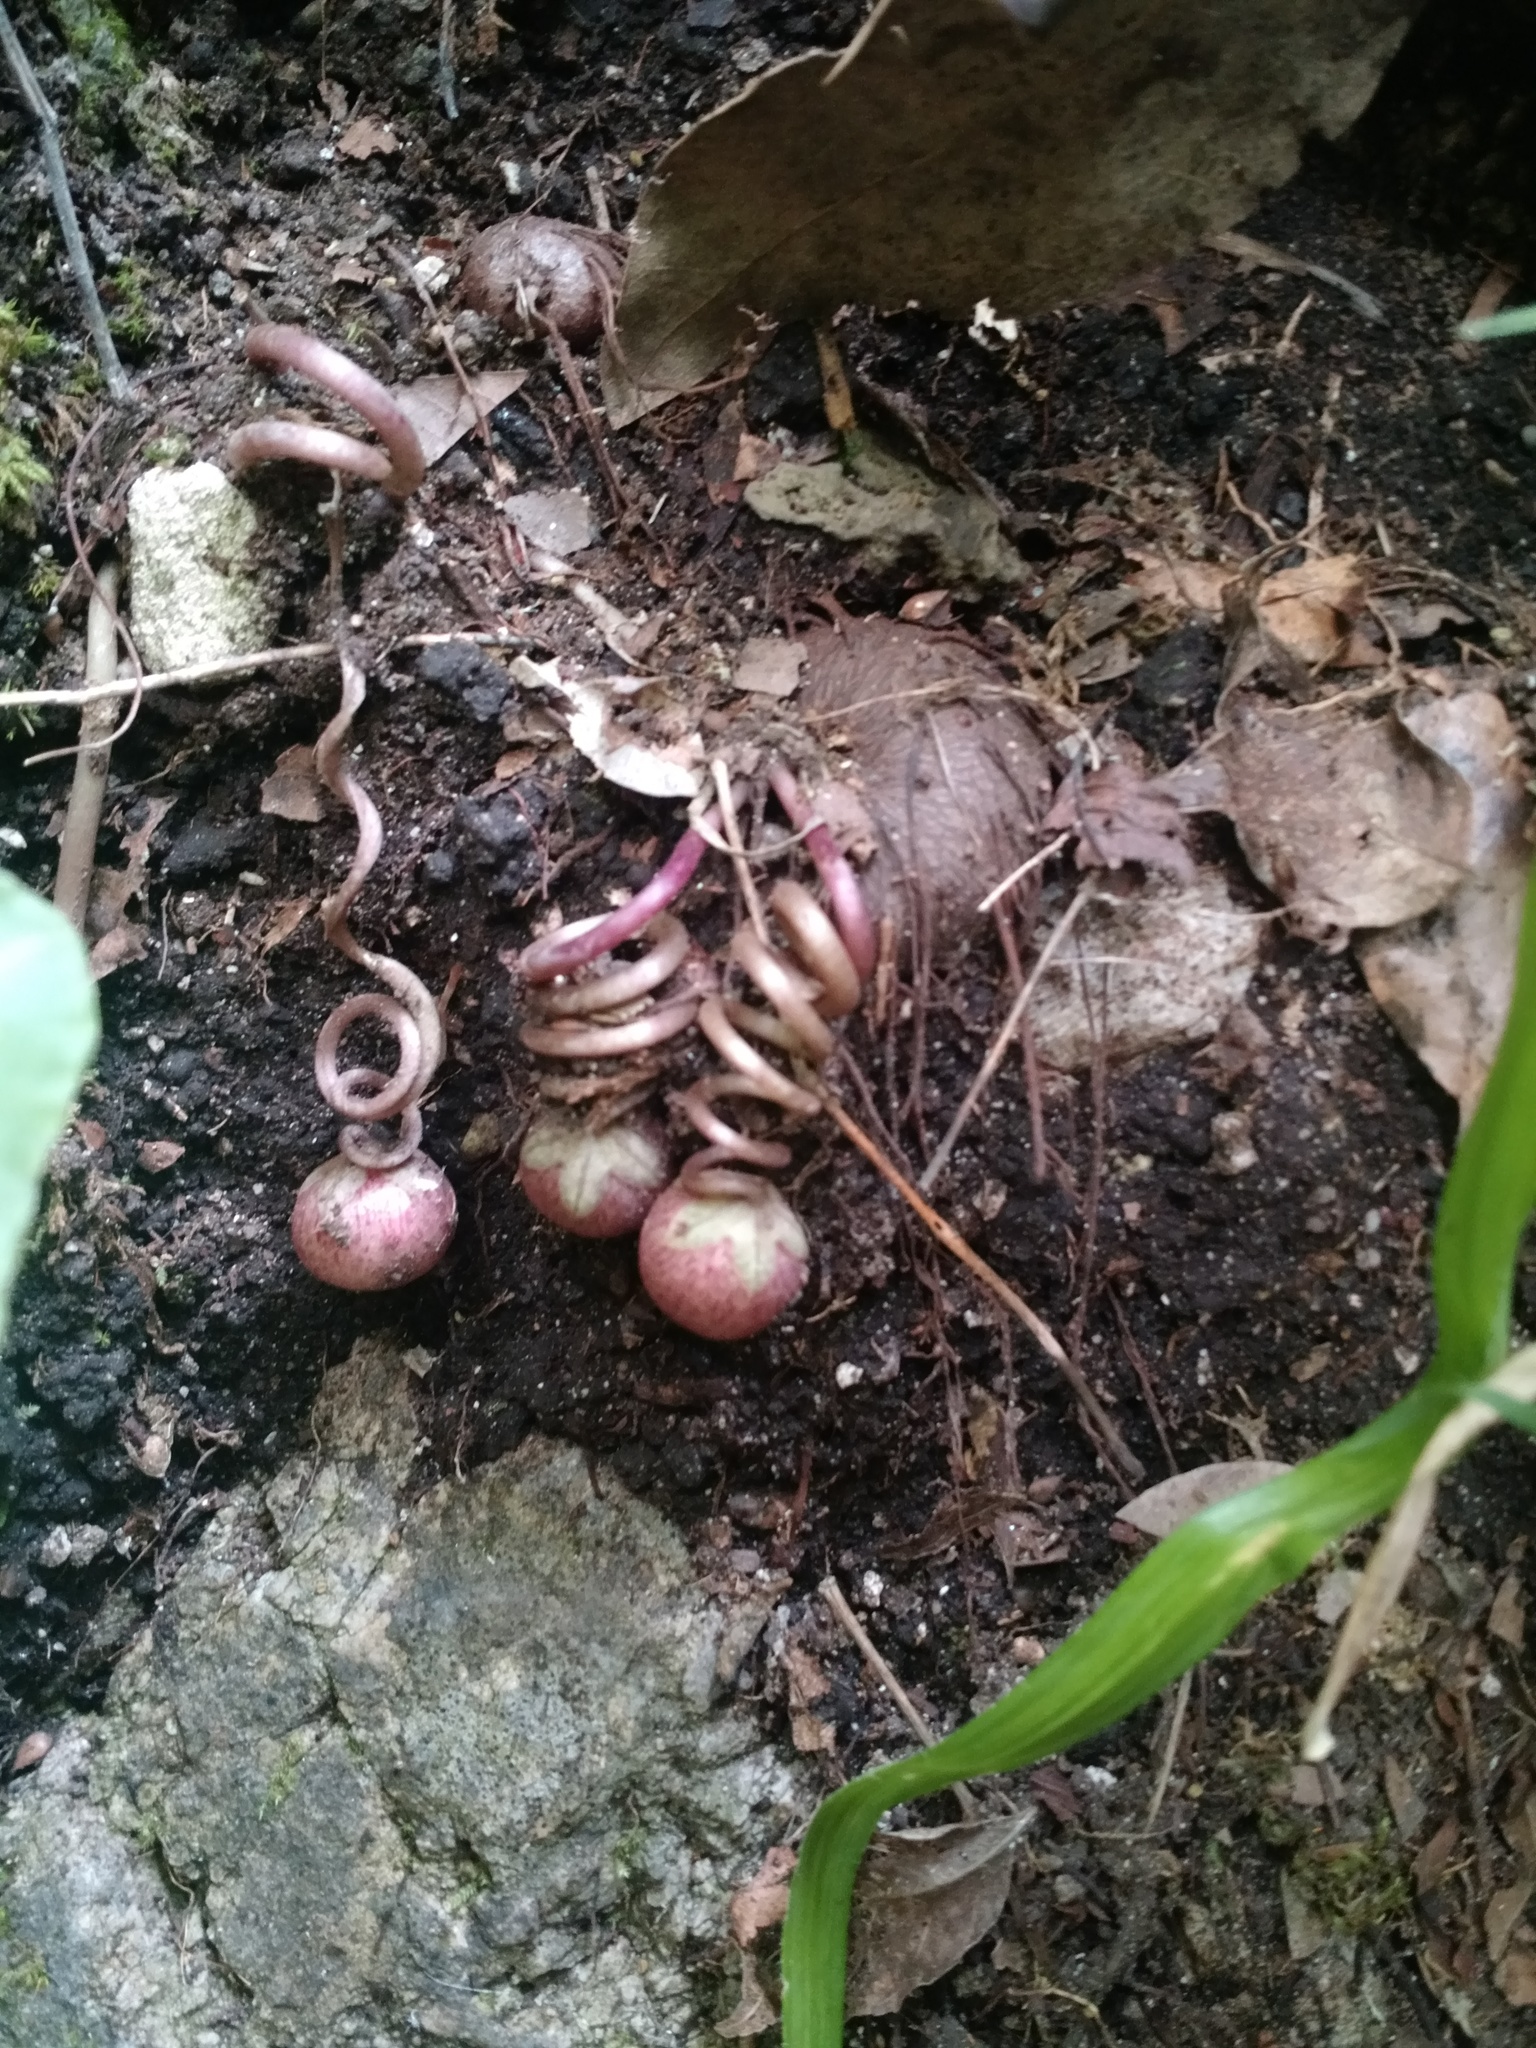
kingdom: Plantae
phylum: Tracheophyta
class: Magnoliopsida
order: Ericales
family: Primulaceae
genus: Cyclamen
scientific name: Cyclamen hederifolium
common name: Sowbread
